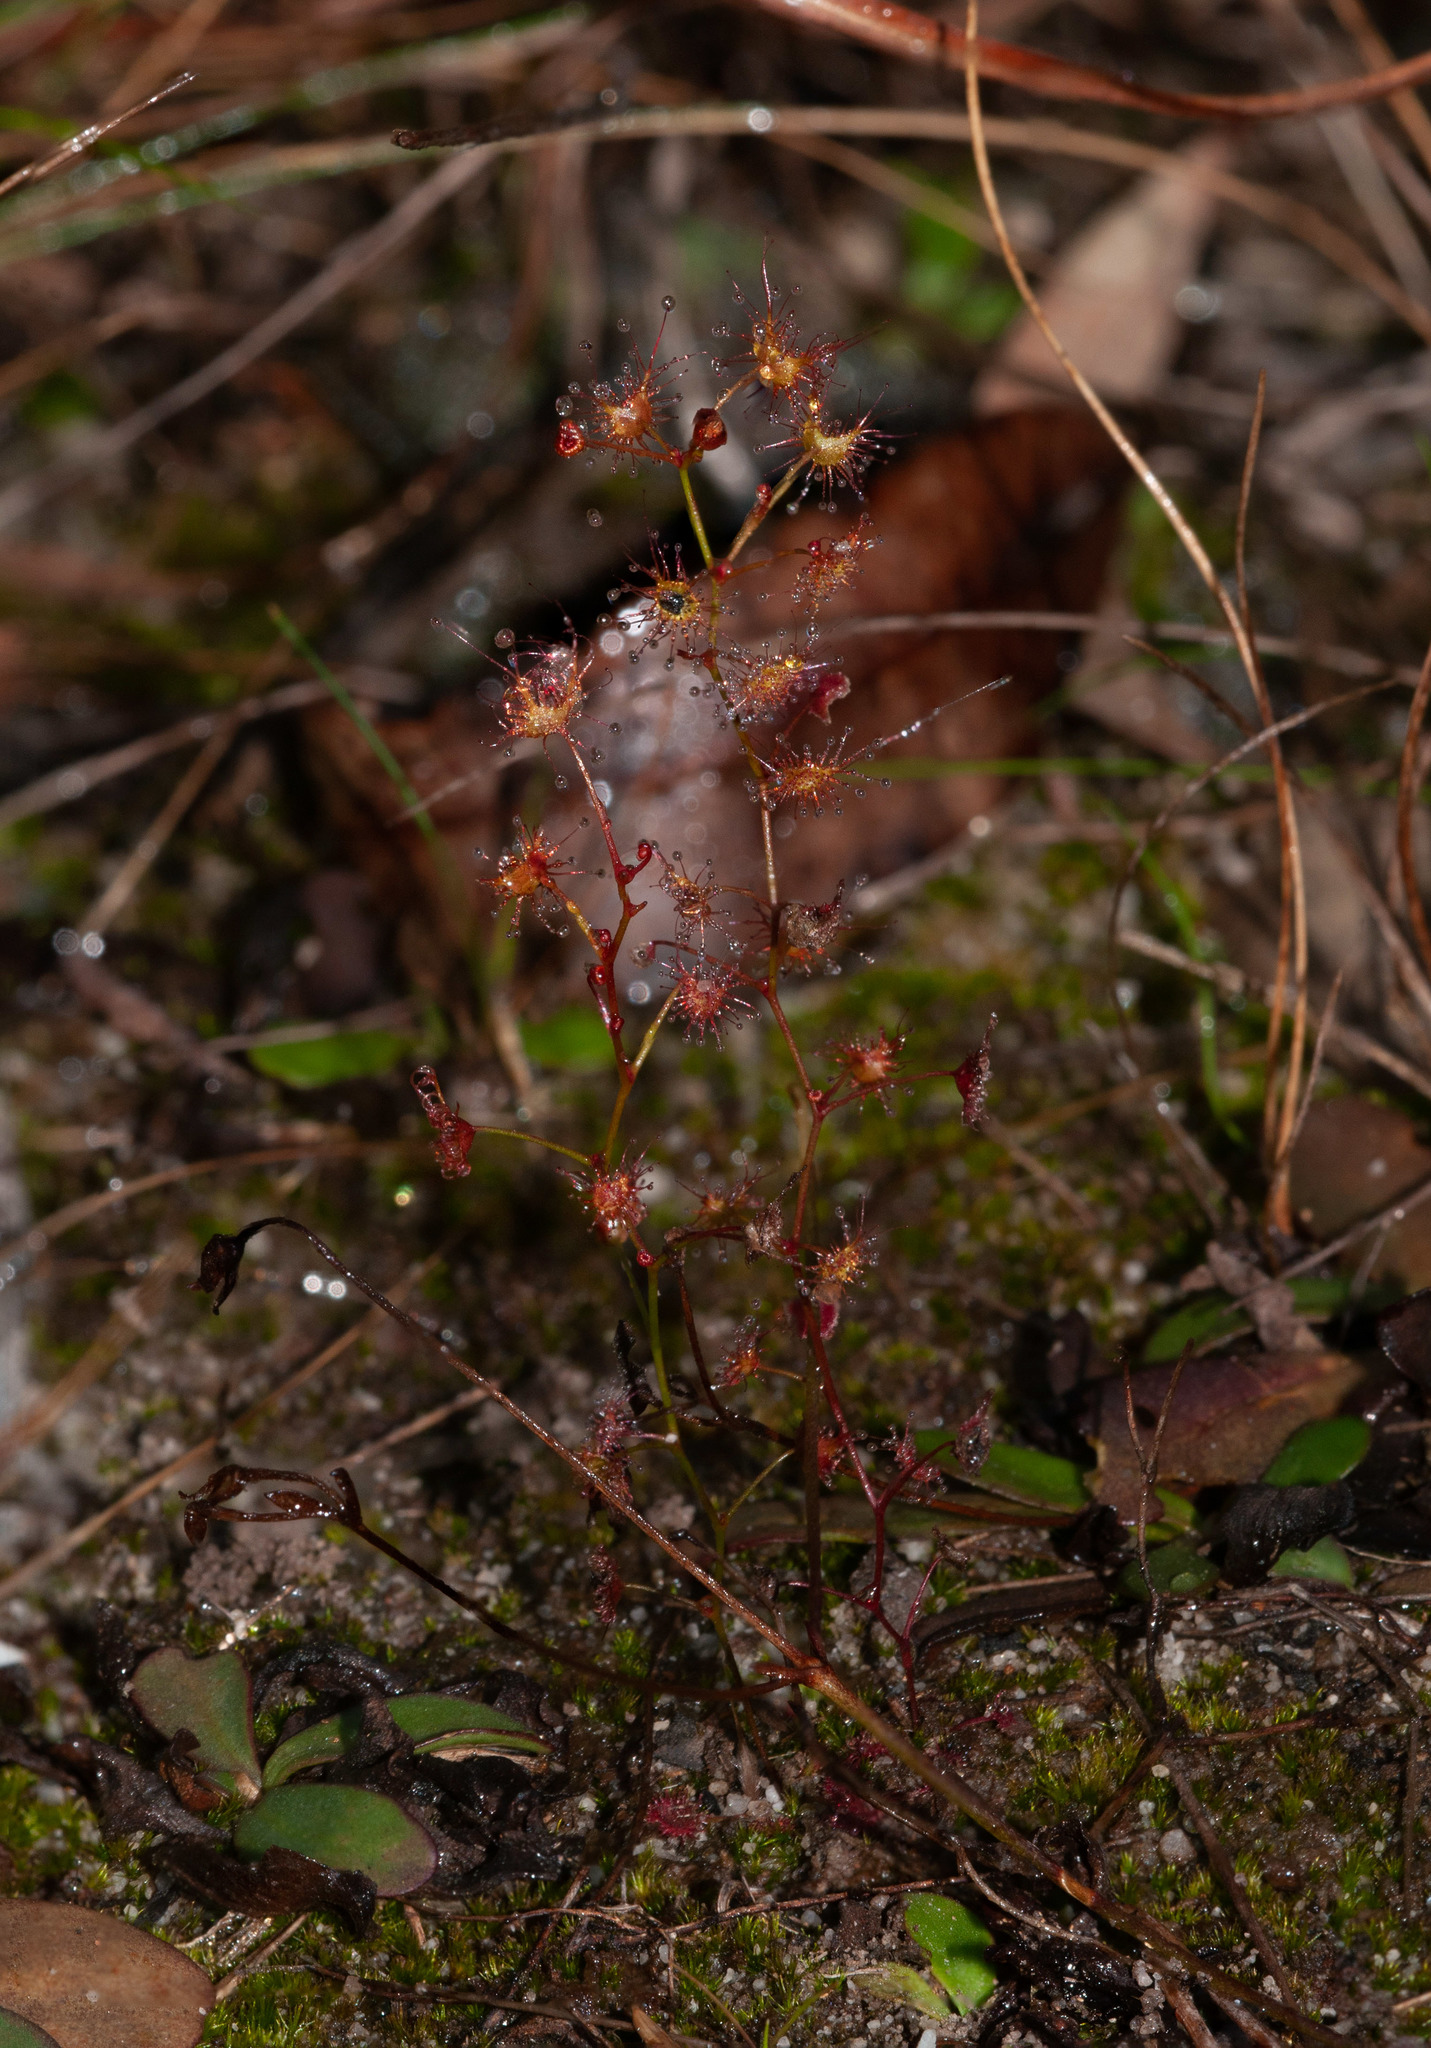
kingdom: Plantae
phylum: Tracheophyta
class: Magnoliopsida
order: Caryophyllales
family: Droseraceae
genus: Drosera
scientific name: Drosera peltata
